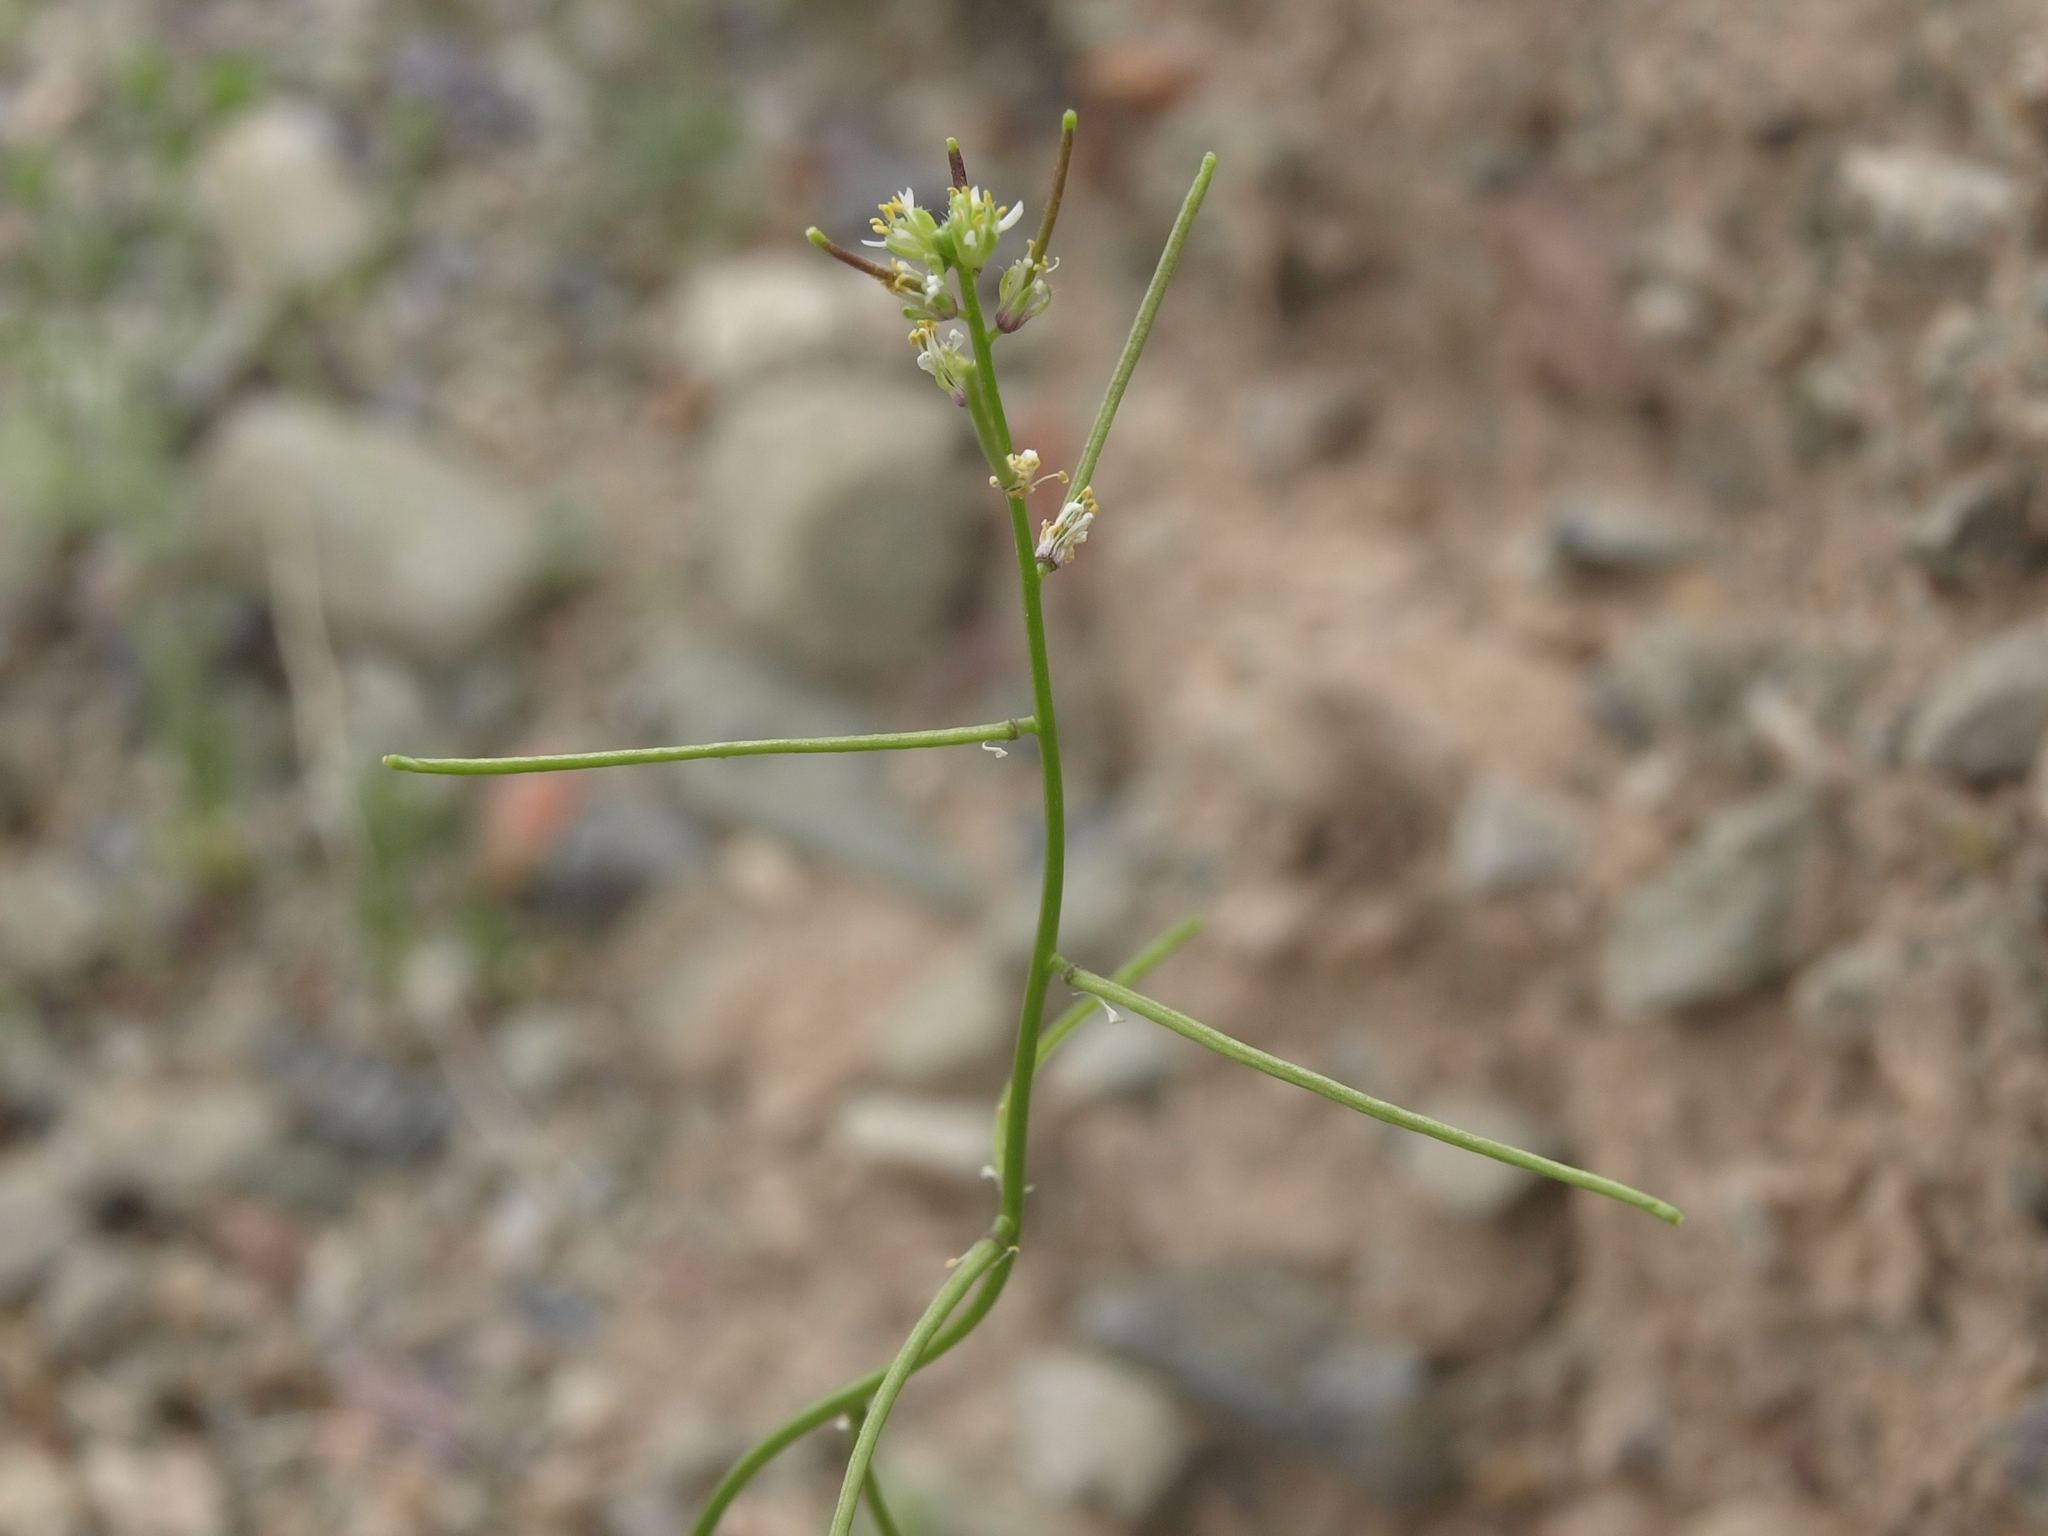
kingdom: Plantae
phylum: Tracheophyta
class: Magnoliopsida
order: Brassicales
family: Brassicaceae
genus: Streptanthus
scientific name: Streptanthus lasiophyllus
